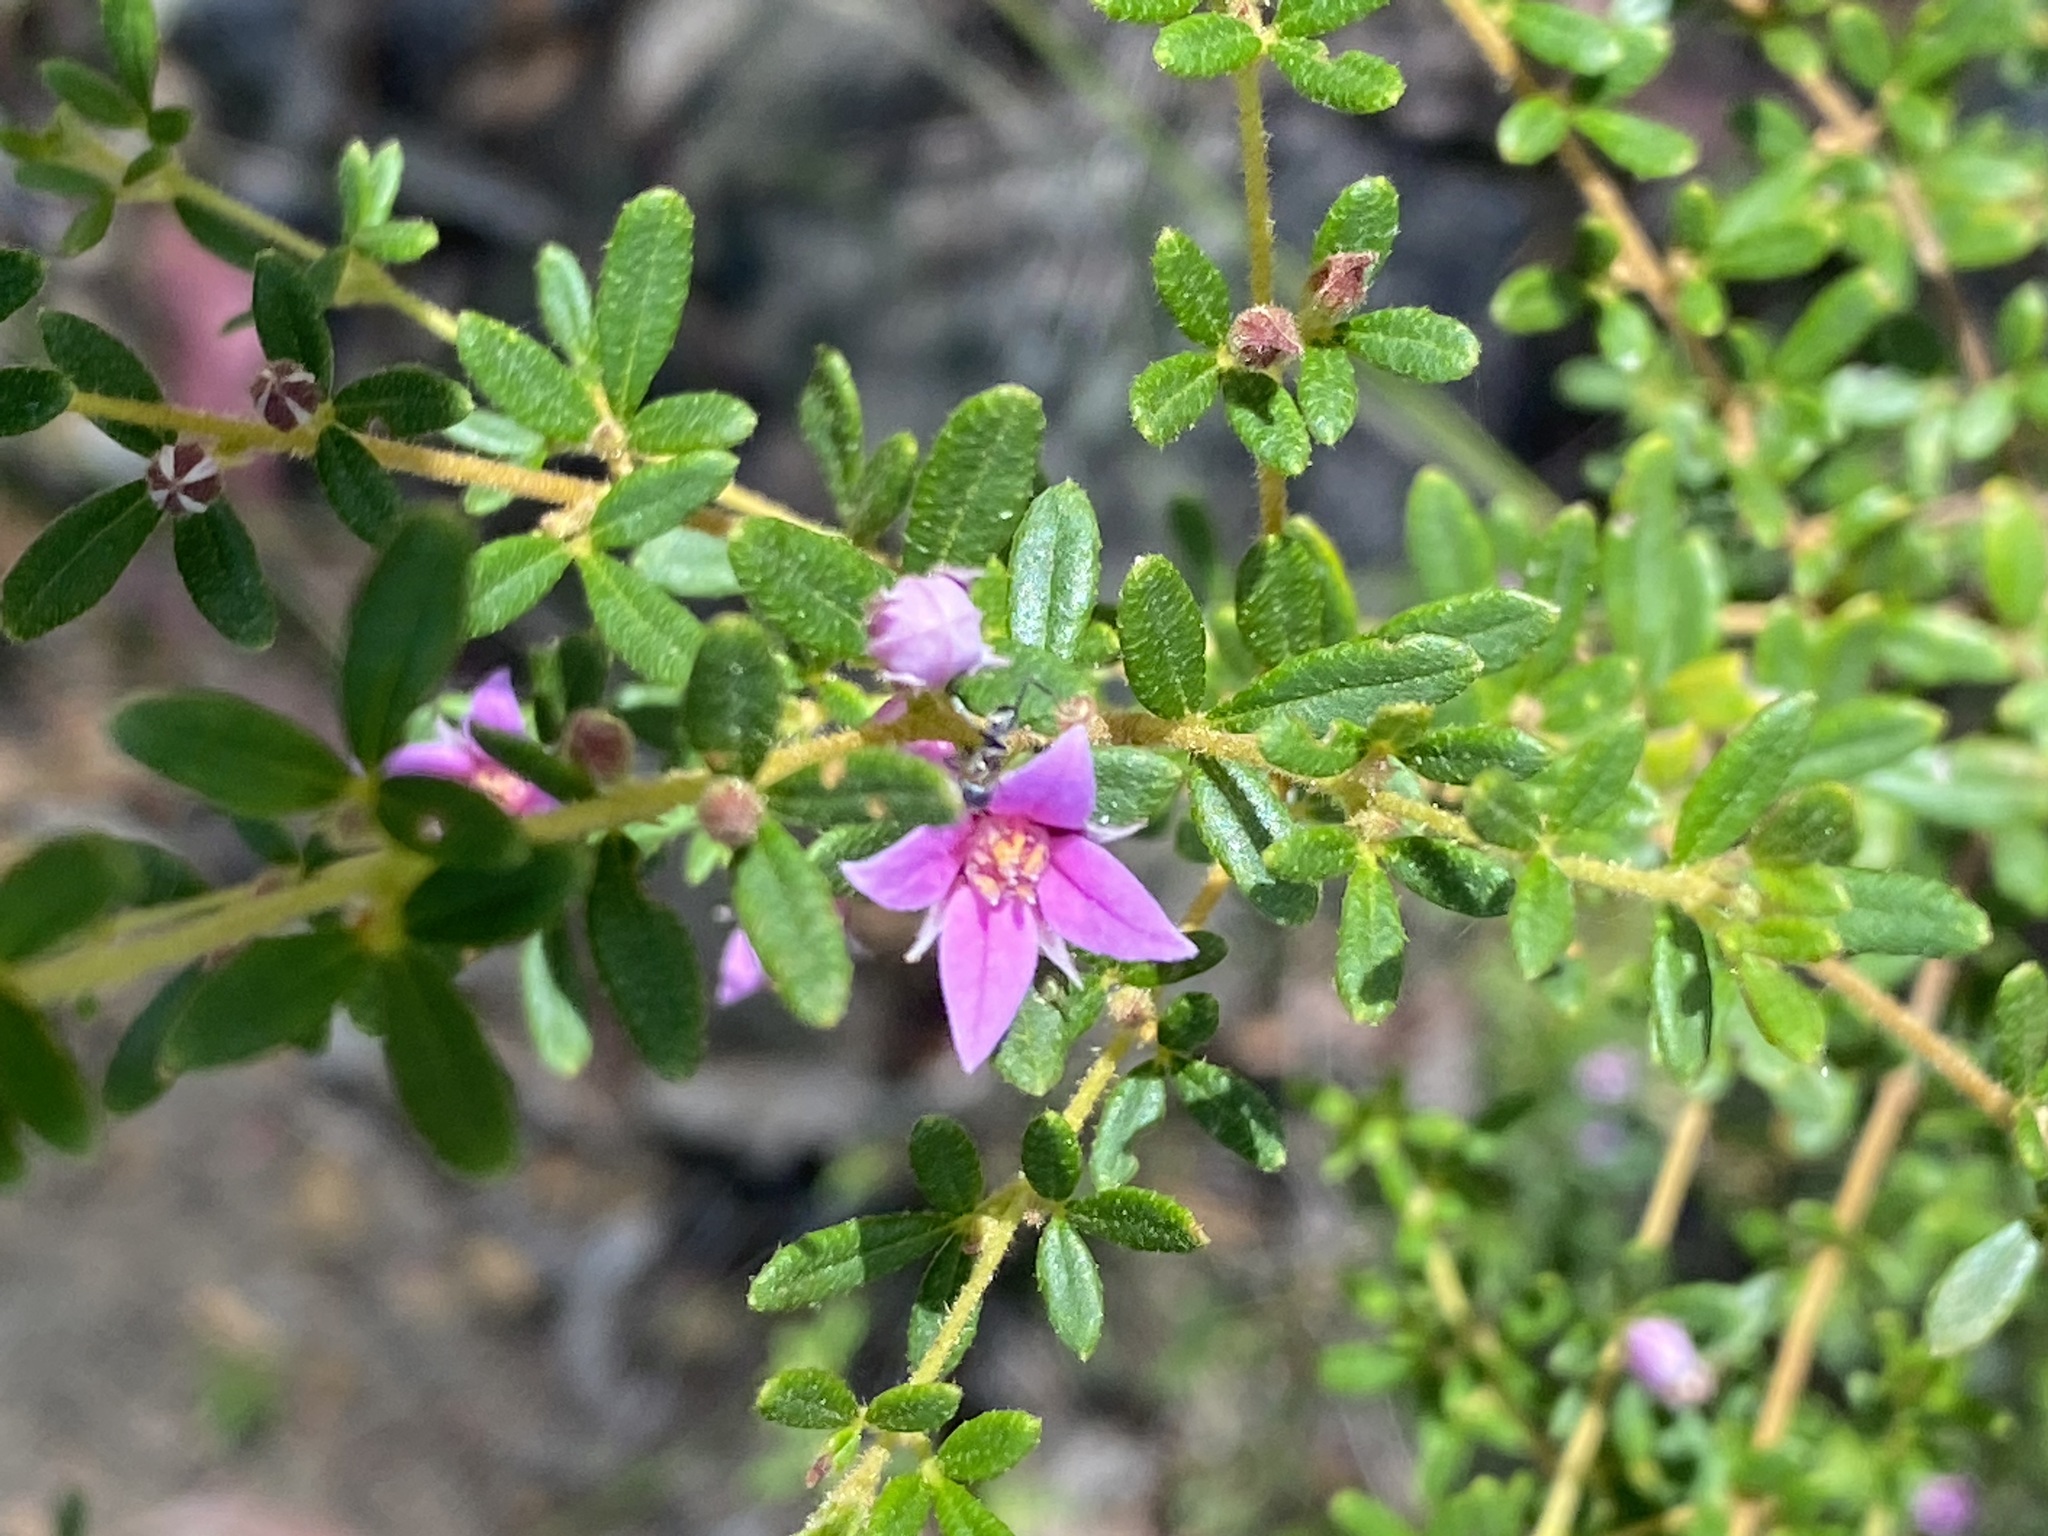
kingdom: Plantae
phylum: Tracheophyta
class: Magnoliopsida
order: Sapindales
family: Rutaceae
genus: Boronia
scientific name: Boronia obovata
